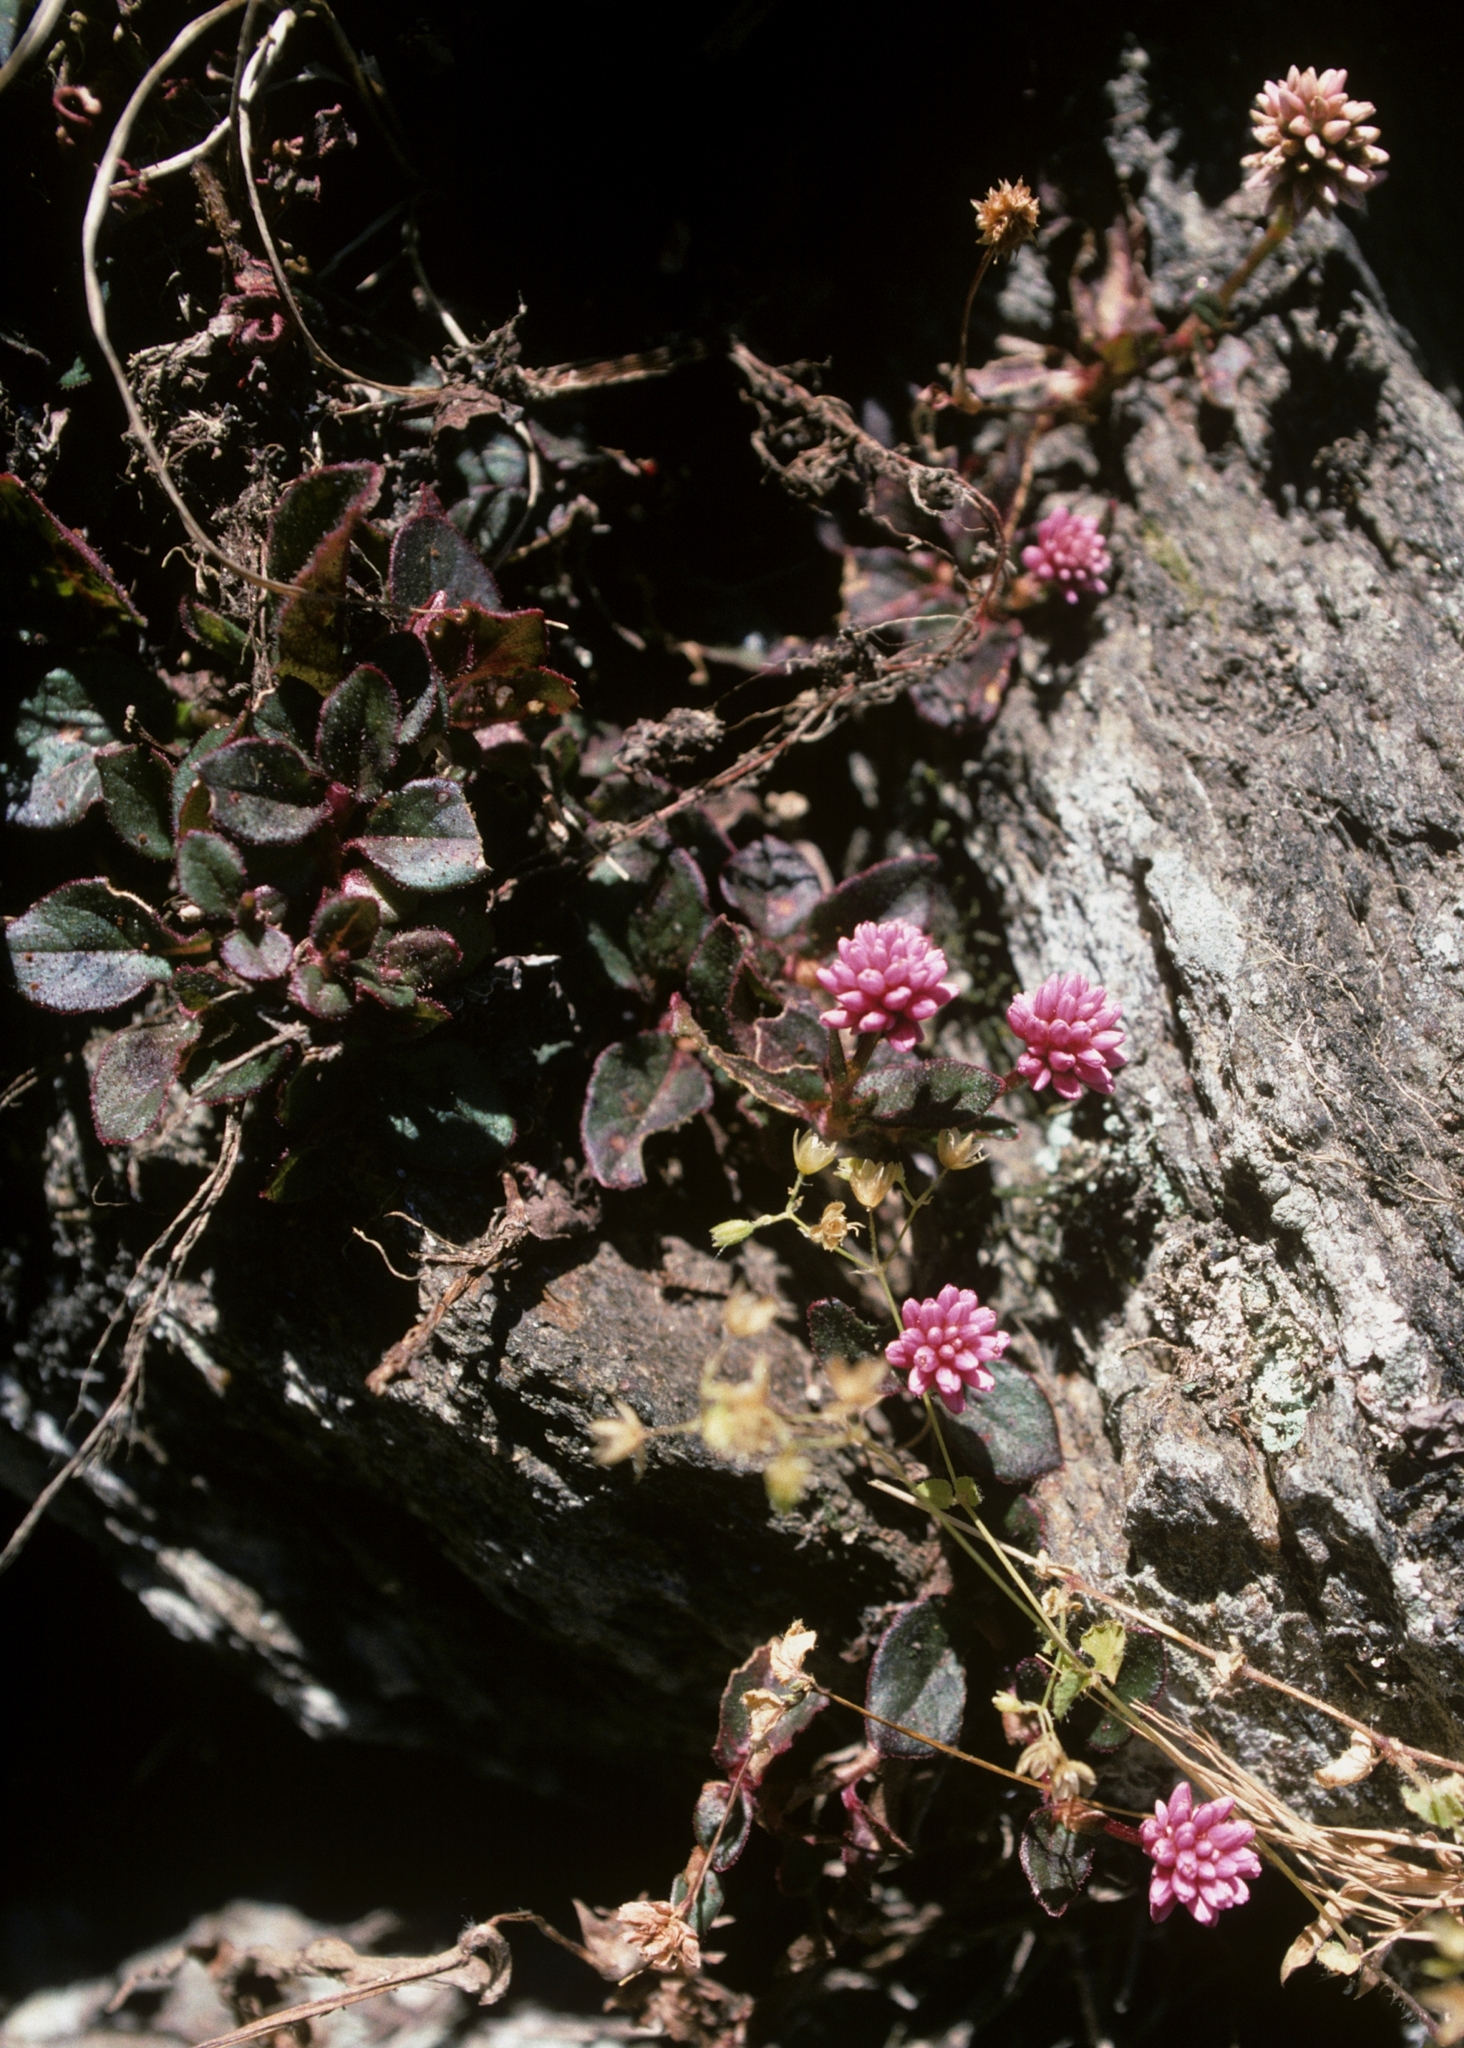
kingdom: Plantae
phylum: Tracheophyta
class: Magnoliopsida
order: Caryophyllales
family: Polygonaceae
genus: Persicaria
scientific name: Persicaria capitata
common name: Pinkhead smartweed
